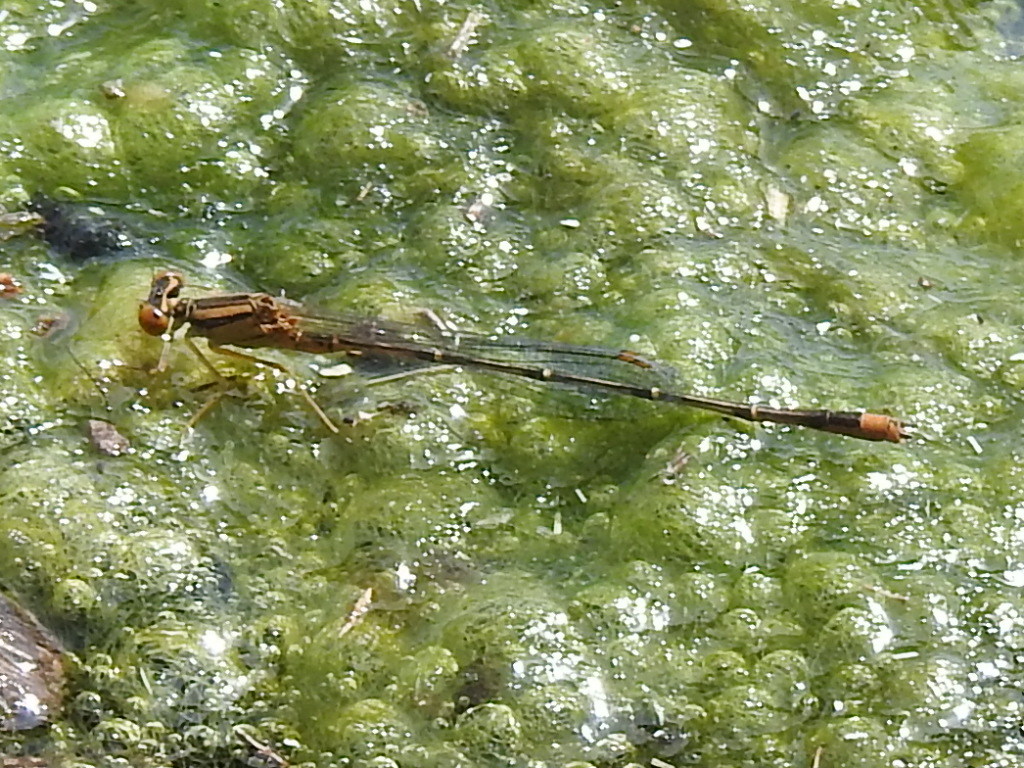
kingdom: Animalia
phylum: Arthropoda
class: Insecta
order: Odonata
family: Coenagrionidae
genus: Enallagma
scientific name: Enallagma signatum
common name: Orange bluet
